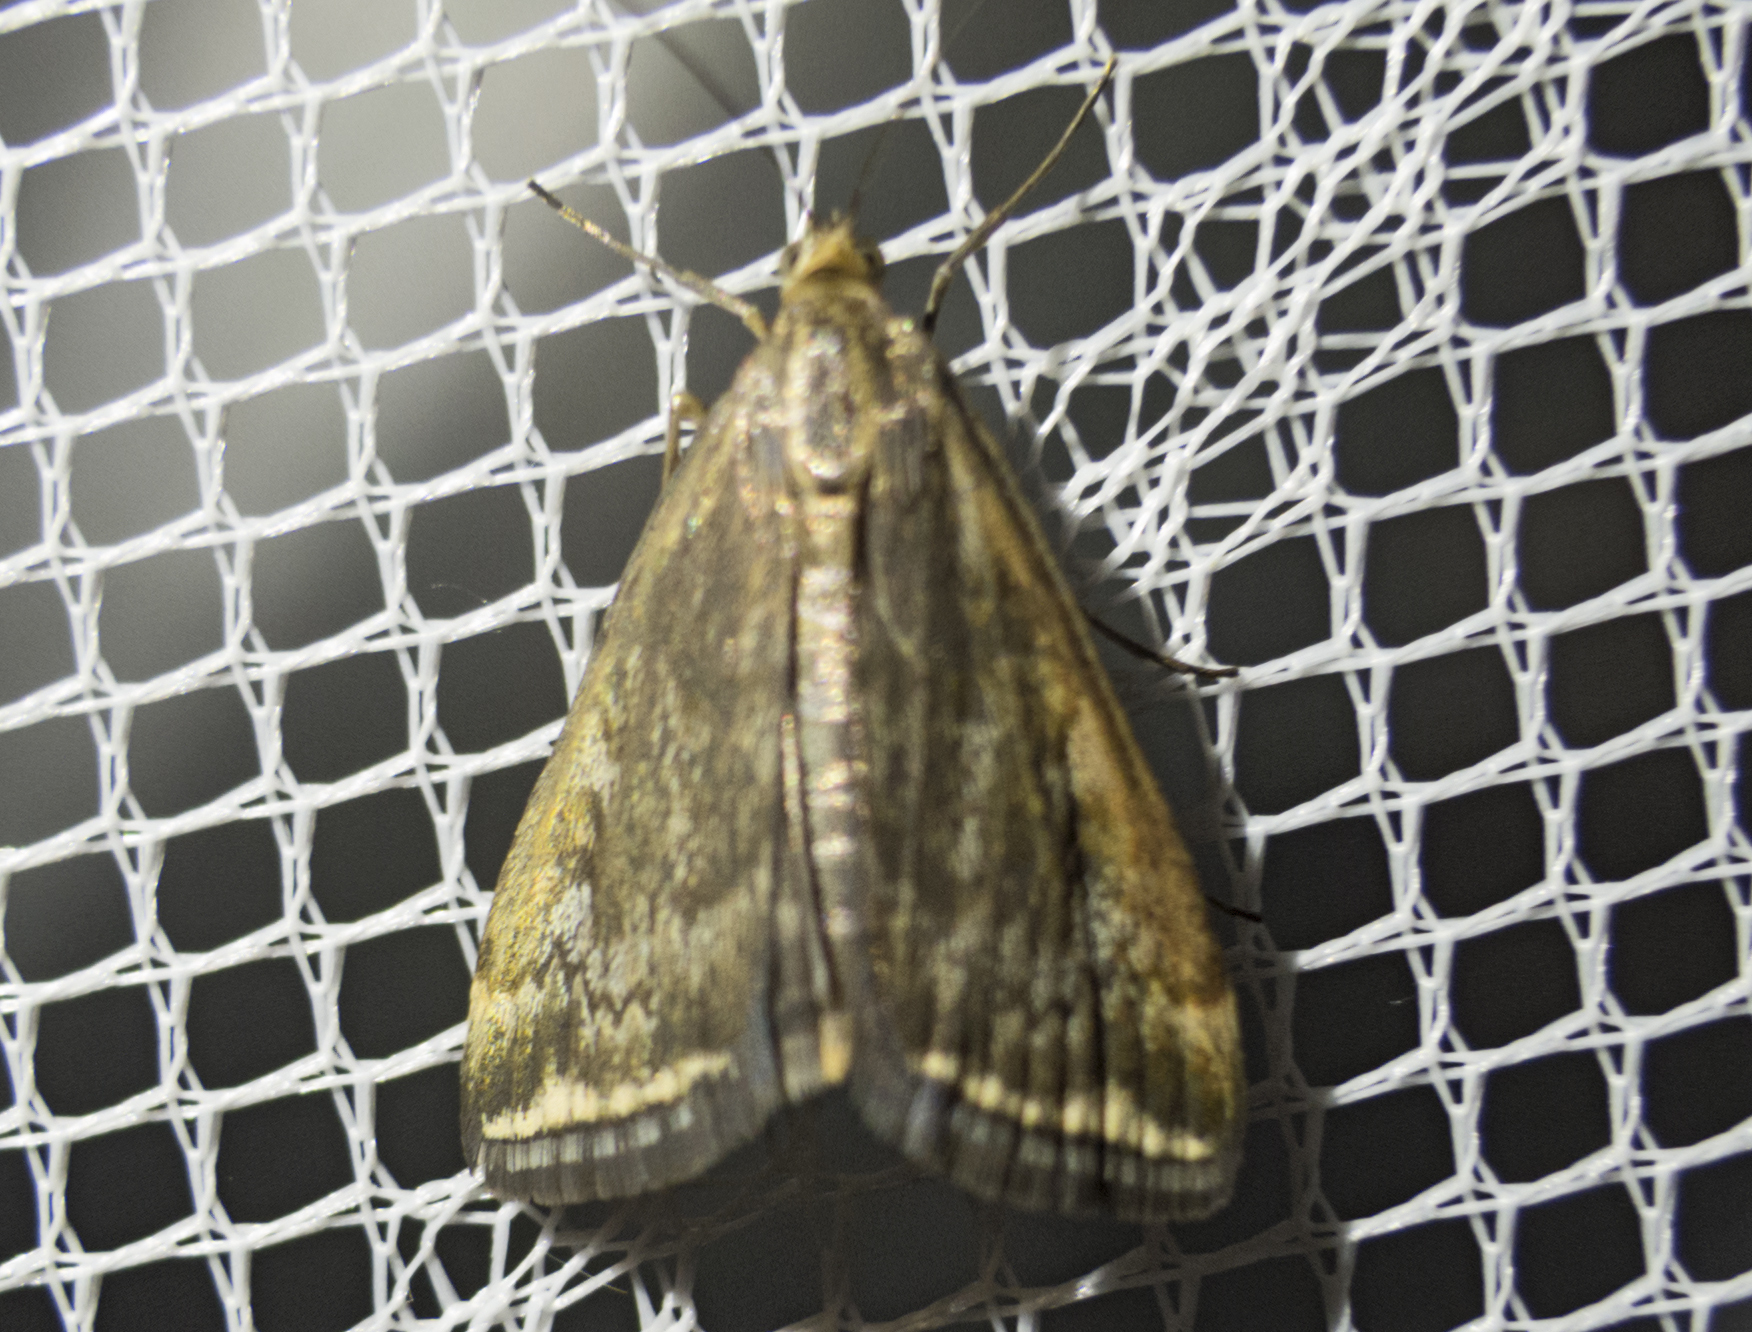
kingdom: Animalia
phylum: Arthropoda
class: Insecta
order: Lepidoptera
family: Crambidae
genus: Loxostege
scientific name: Loxostege sticticalis
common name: Crambid moth
